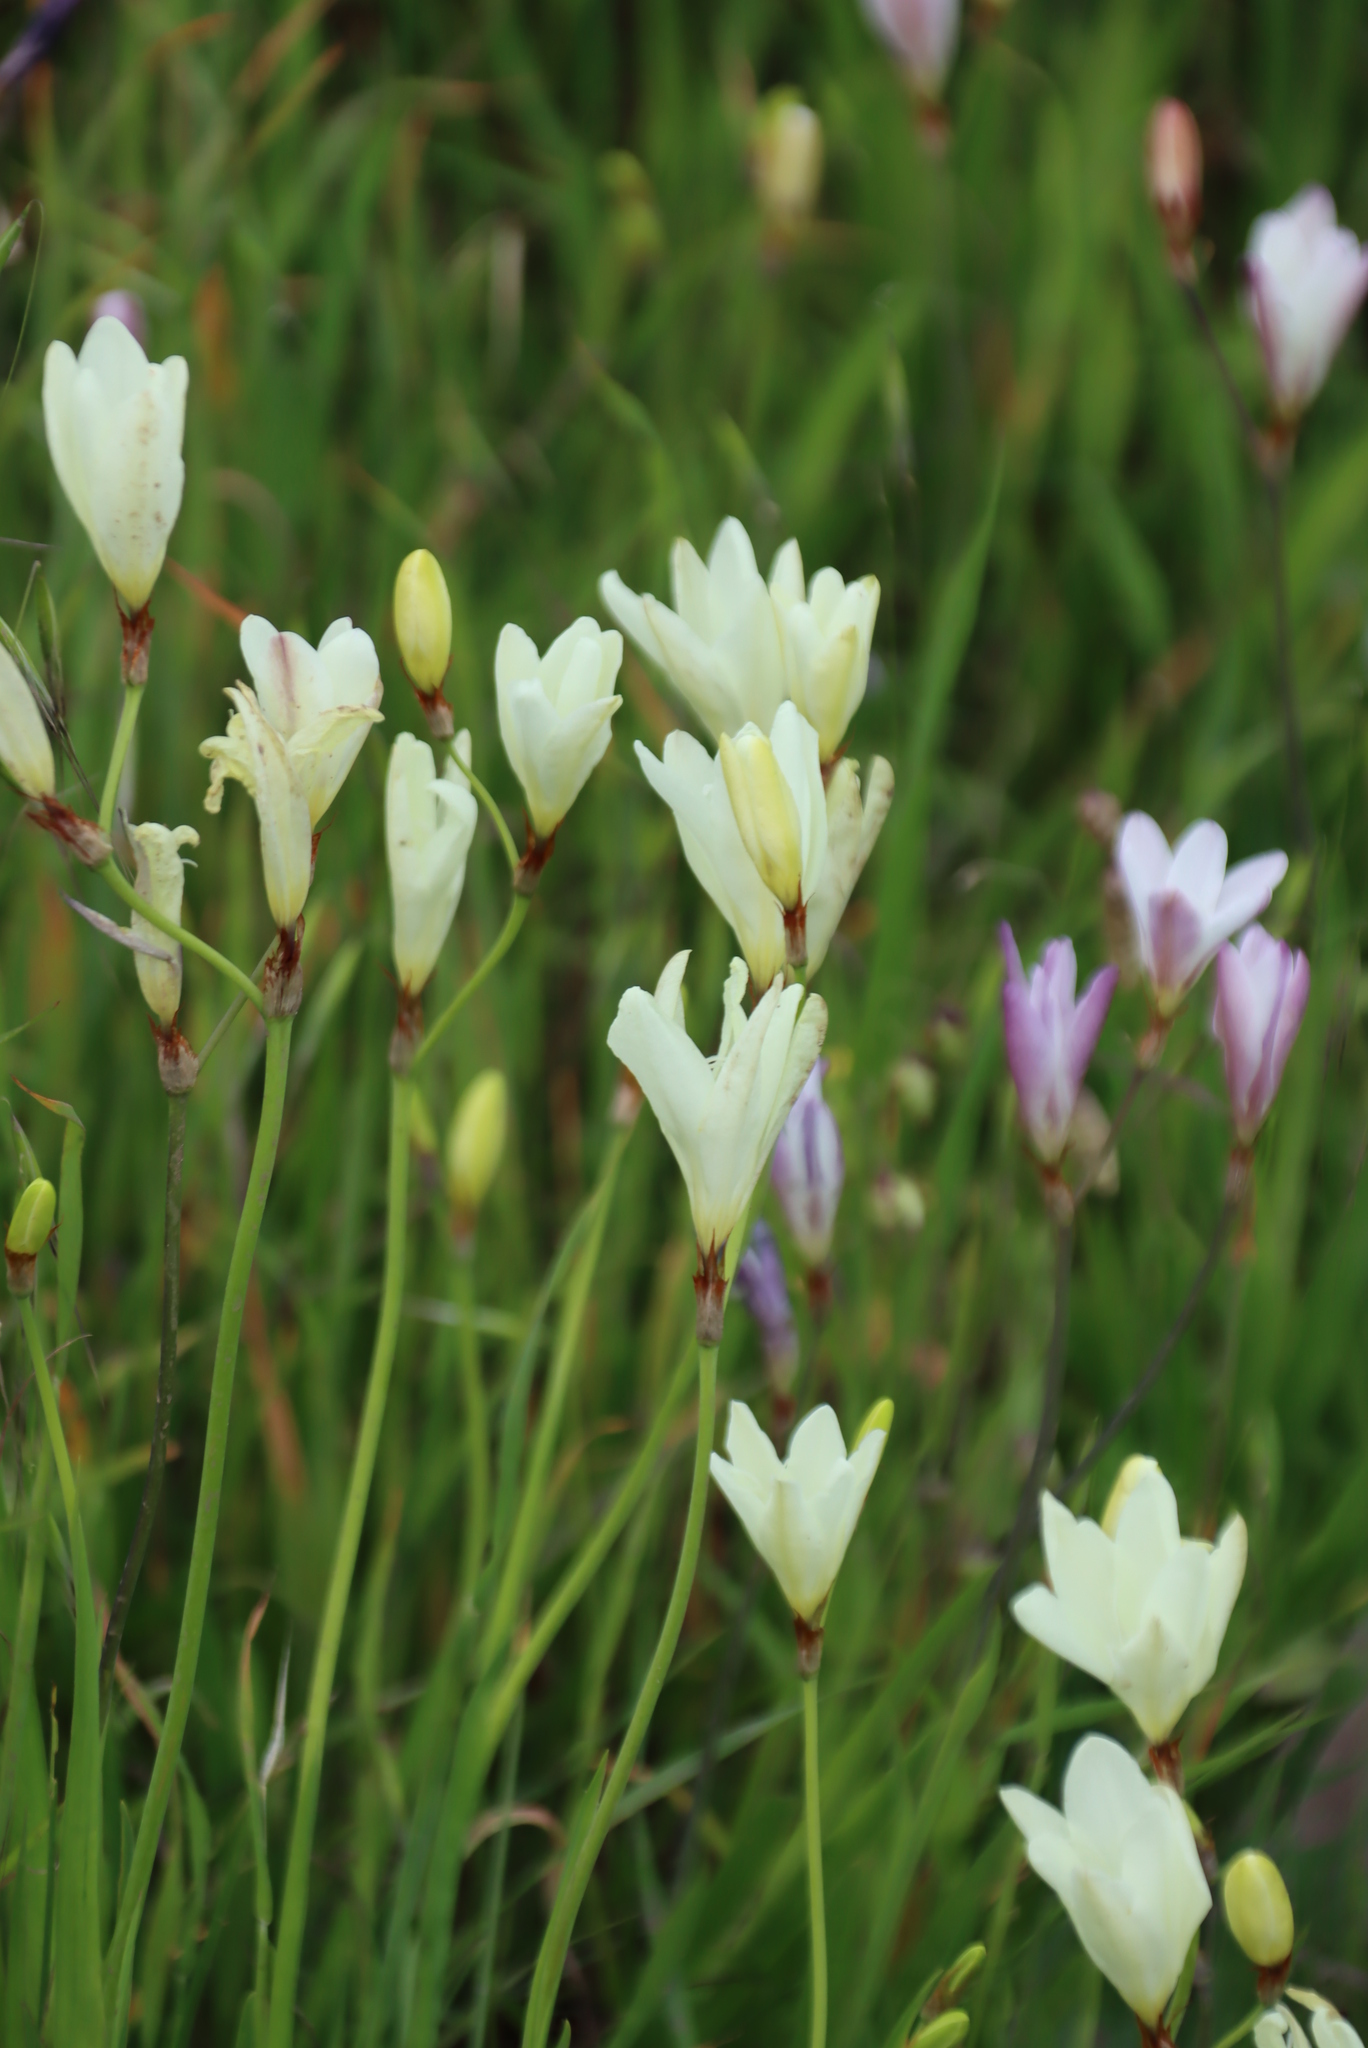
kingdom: Plantae
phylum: Tracheophyta
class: Liliopsida
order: Asparagales
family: Iridaceae
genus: Sparaxis
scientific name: Sparaxis bulbifera
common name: Harlequin-flower
